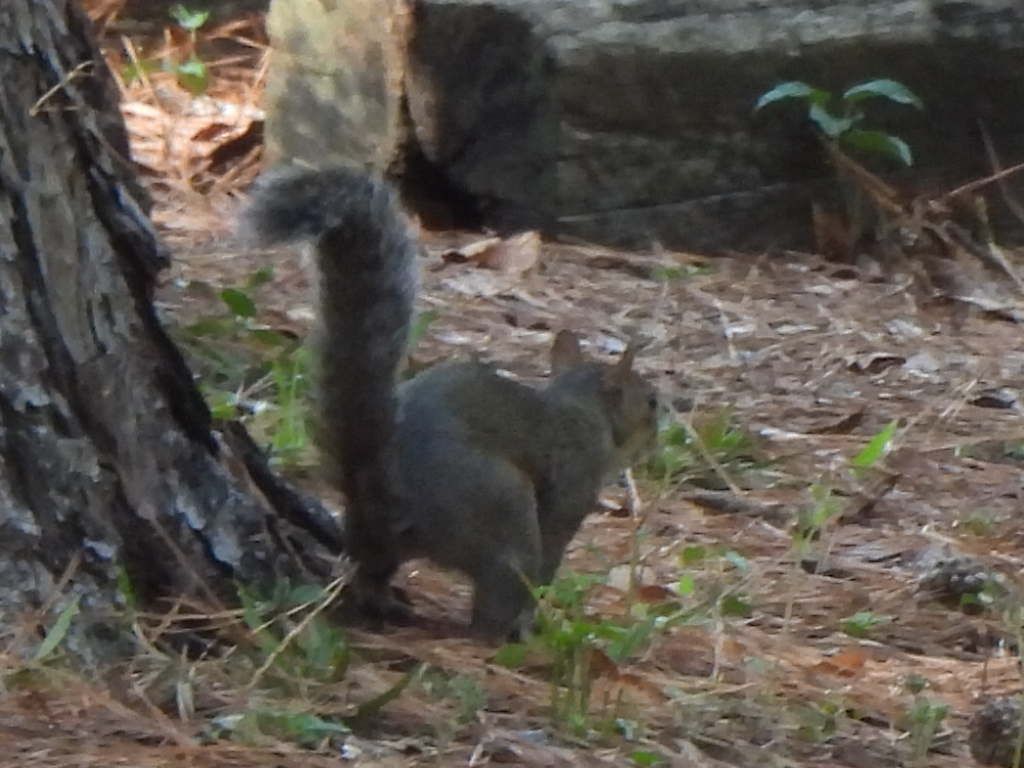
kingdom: Animalia
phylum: Chordata
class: Mammalia
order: Rodentia
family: Sciuridae
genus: Sciurus
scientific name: Sciurus carolinensis
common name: Eastern gray squirrel
